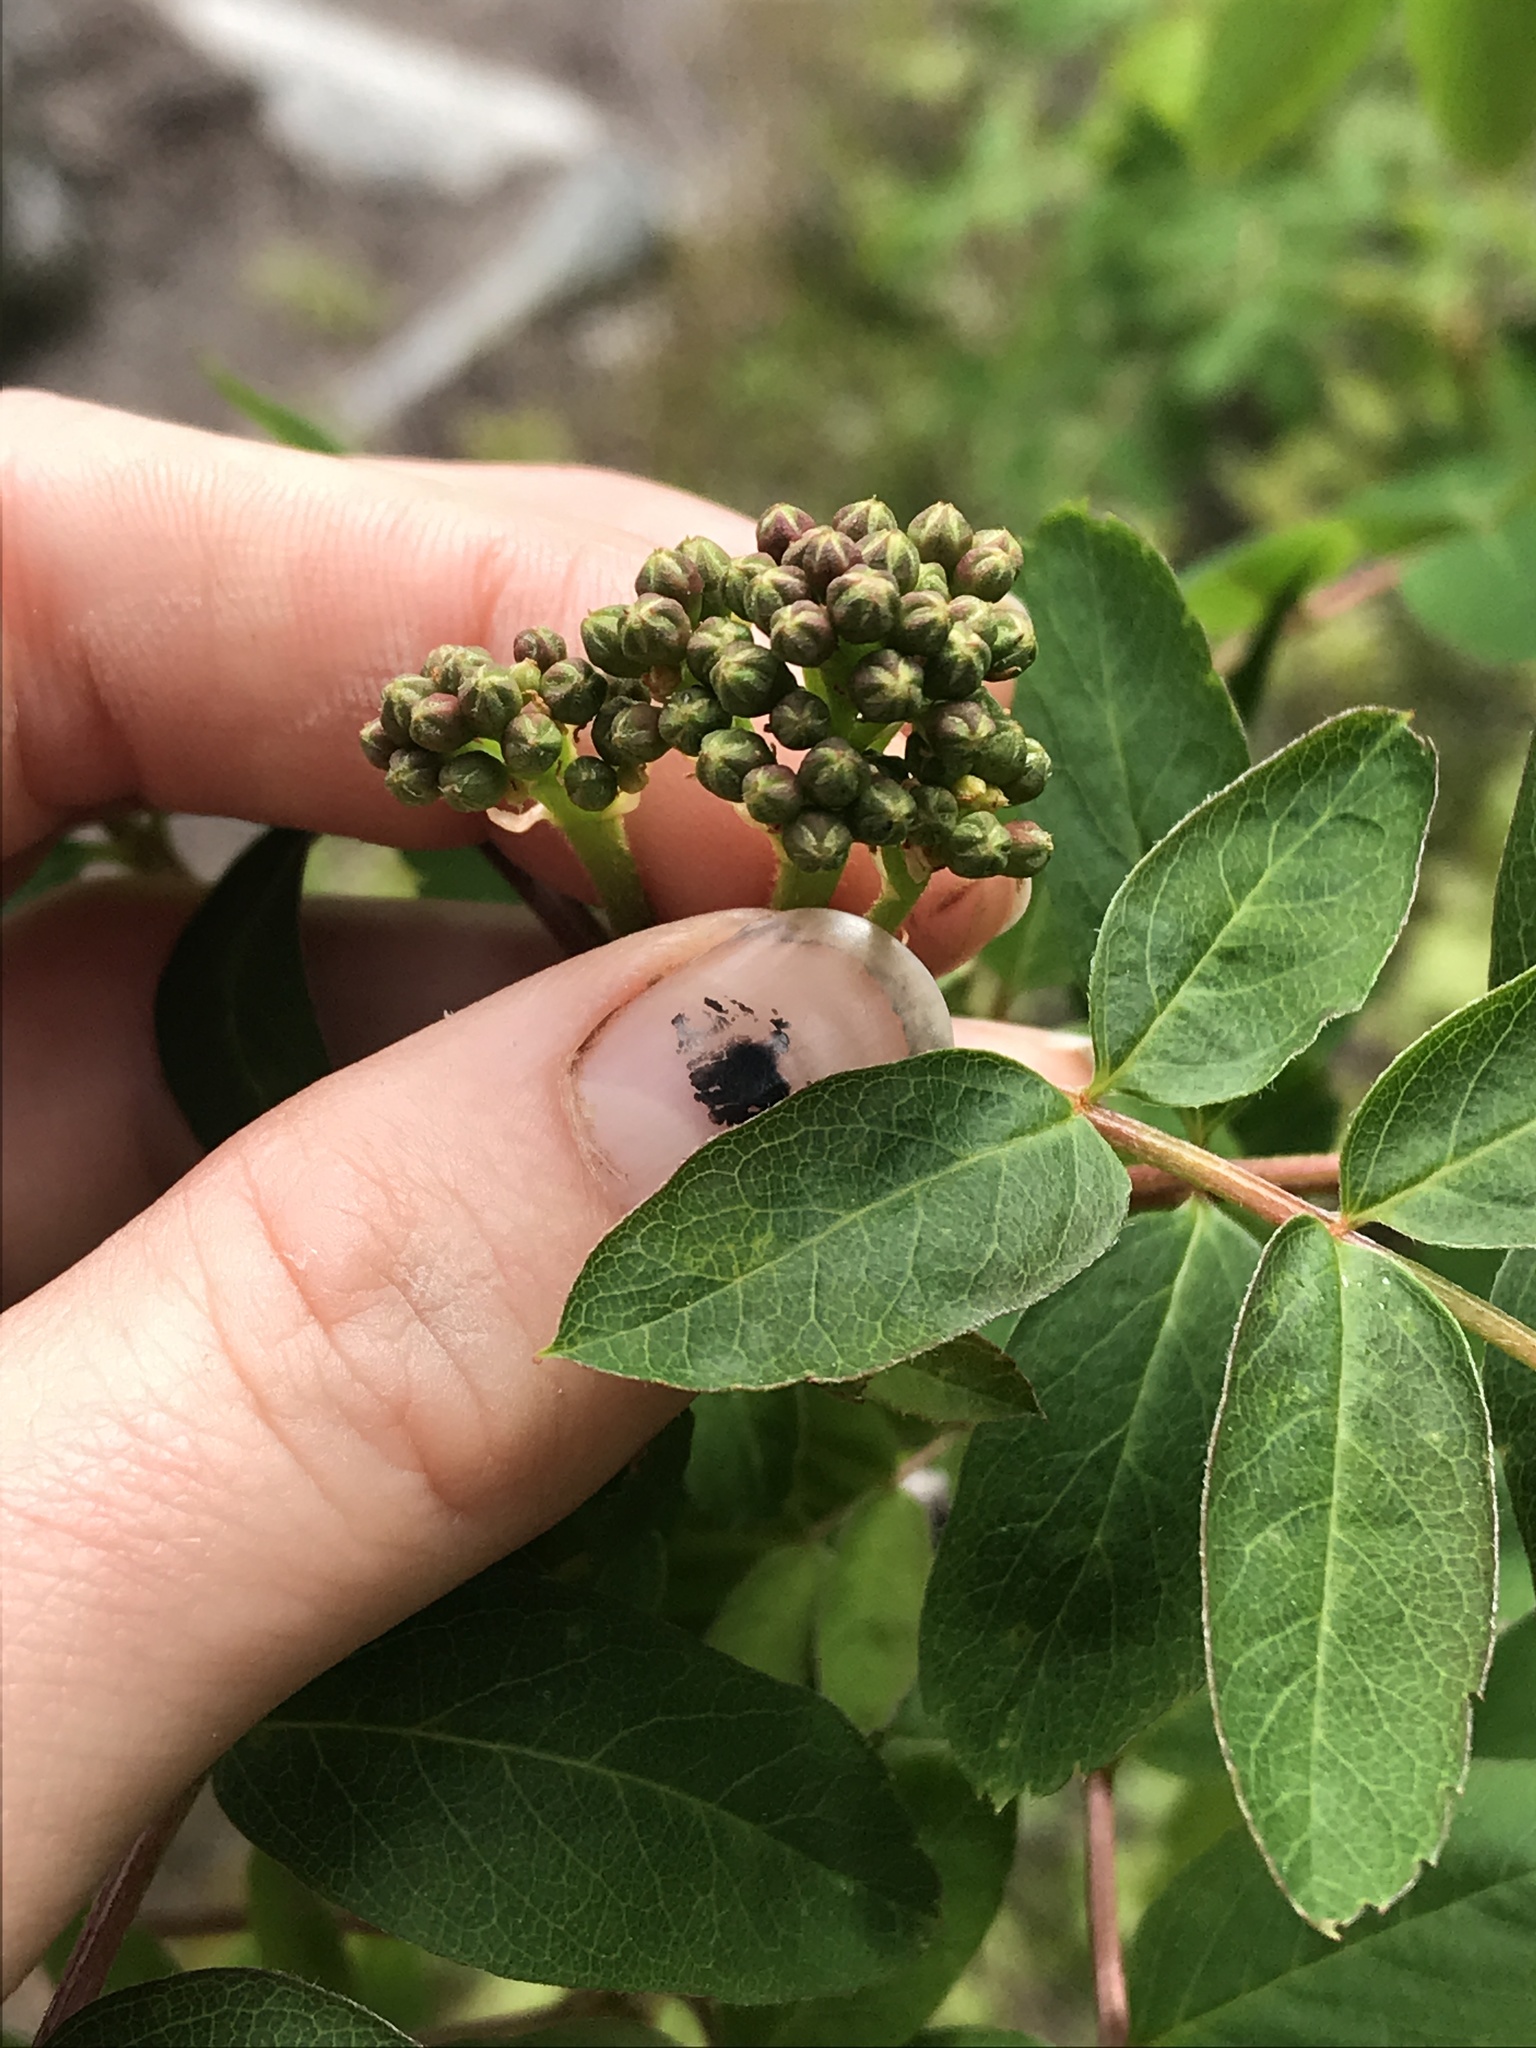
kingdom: Plantae
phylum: Tracheophyta
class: Magnoliopsida
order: Rosales
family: Rosaceae
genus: Sorbus
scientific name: Sorbus sitchensis
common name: Sitka mountain-ash
